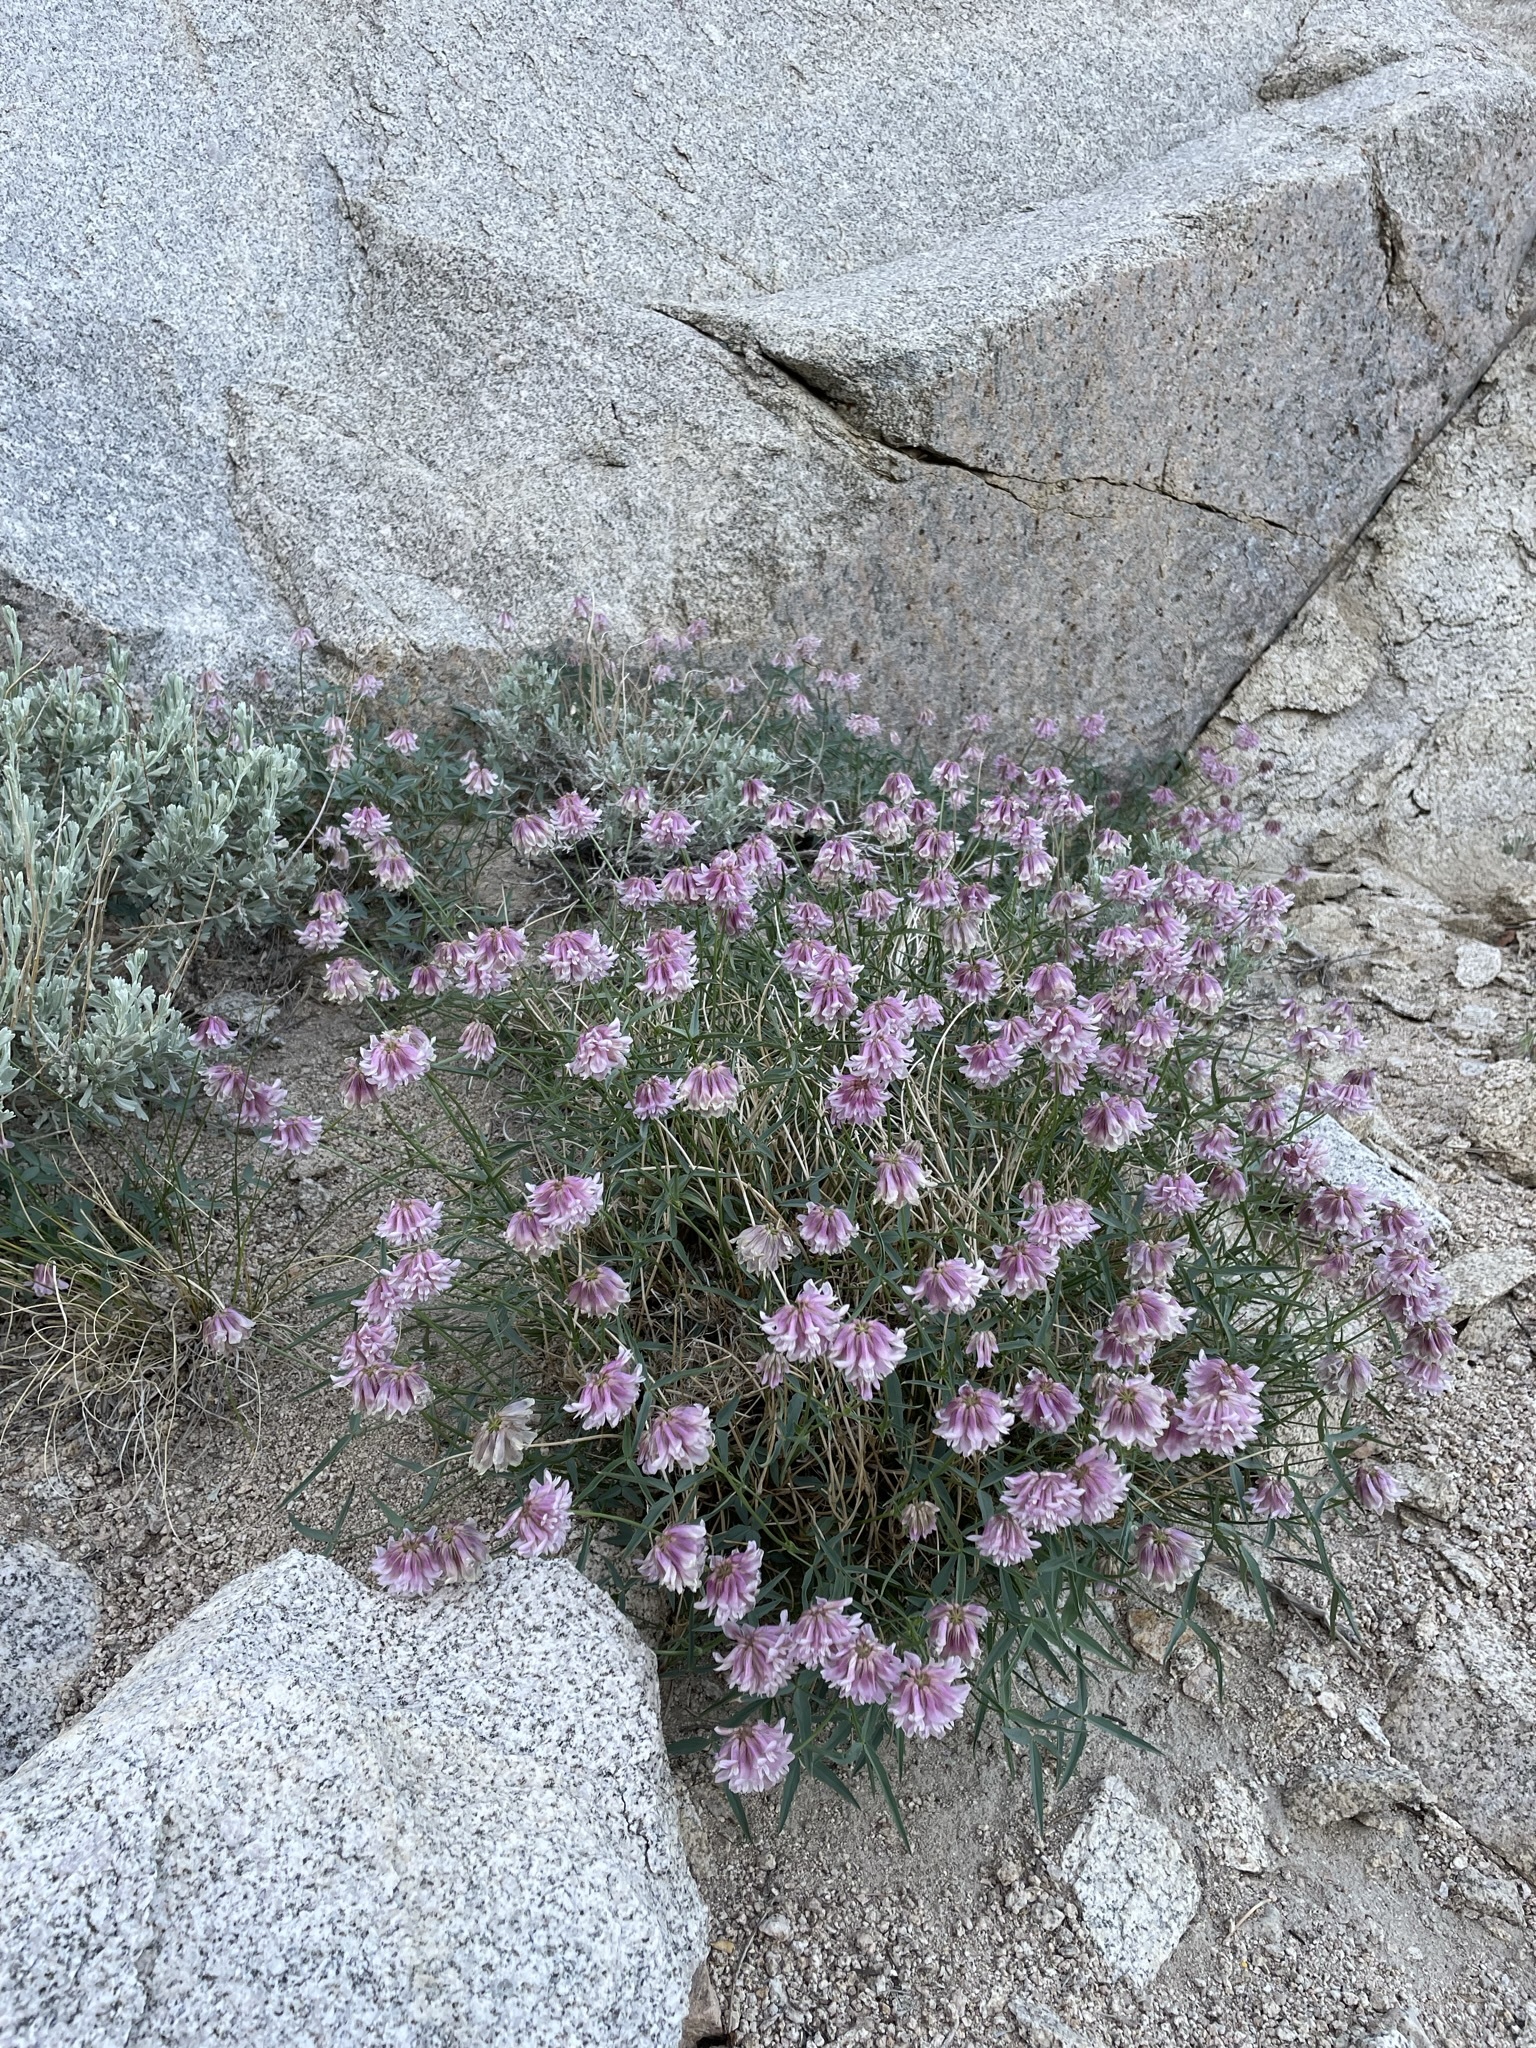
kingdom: Plantae
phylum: Tracheophyta
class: Magnoliopsida
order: Fabales
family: Fabaceae
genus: Trifolium
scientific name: Trifolium dedeckerae
